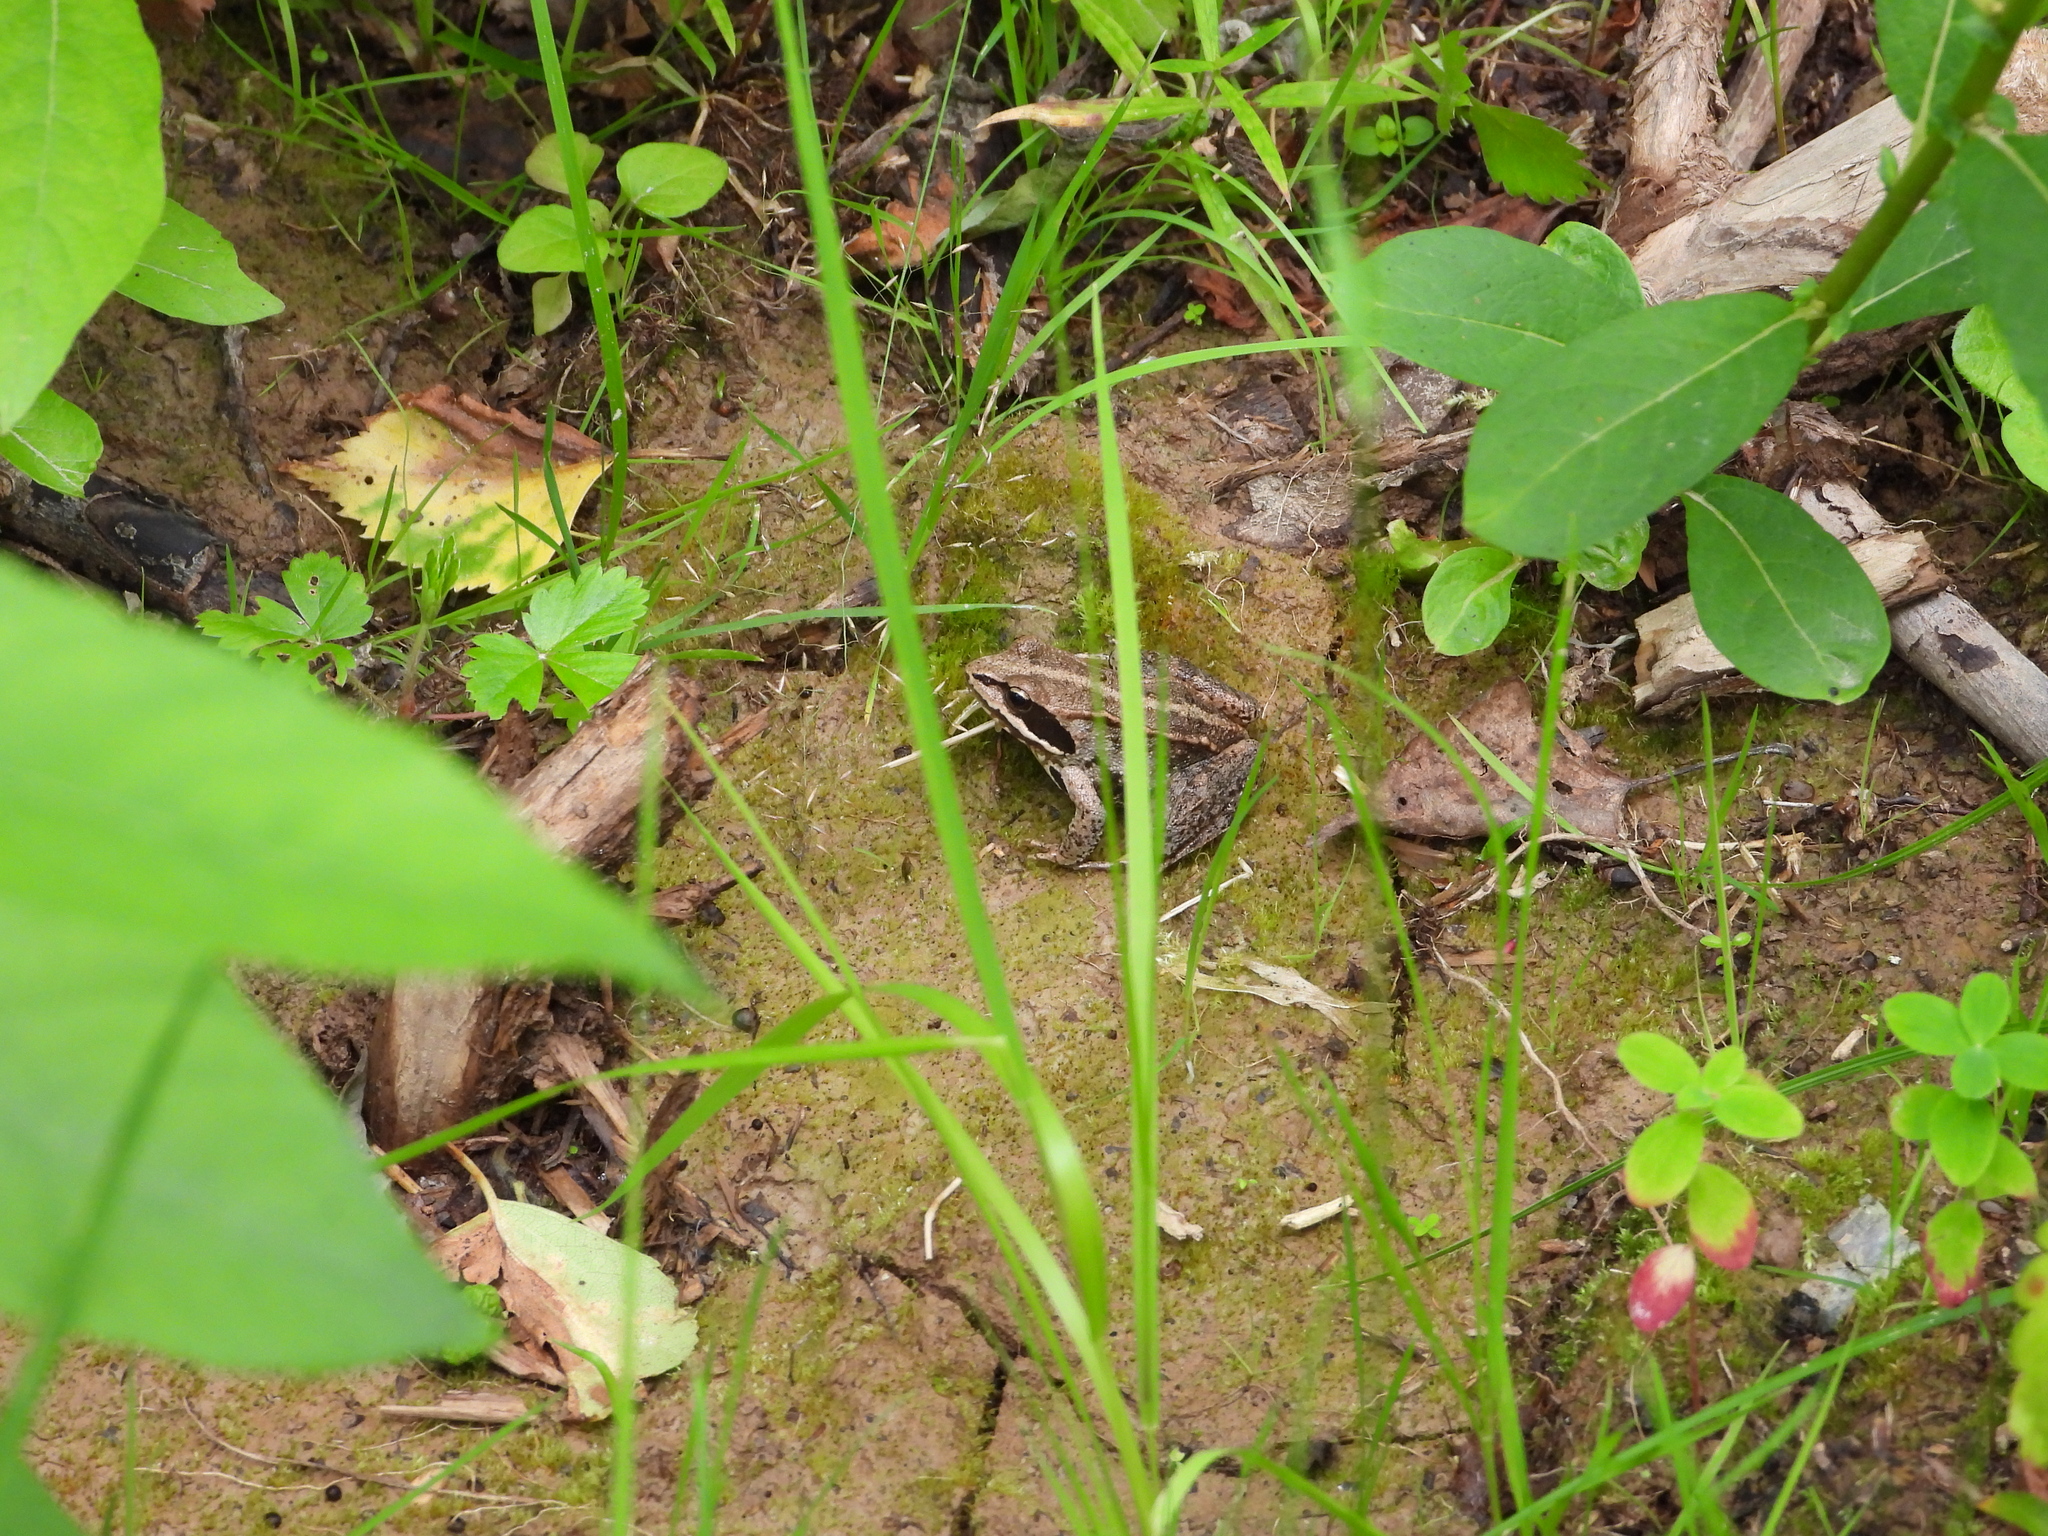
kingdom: Animalia
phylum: Chordata
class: Amphibia
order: Anura
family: Ranidae
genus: Rana
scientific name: Rana arvalis
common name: Moor frog
